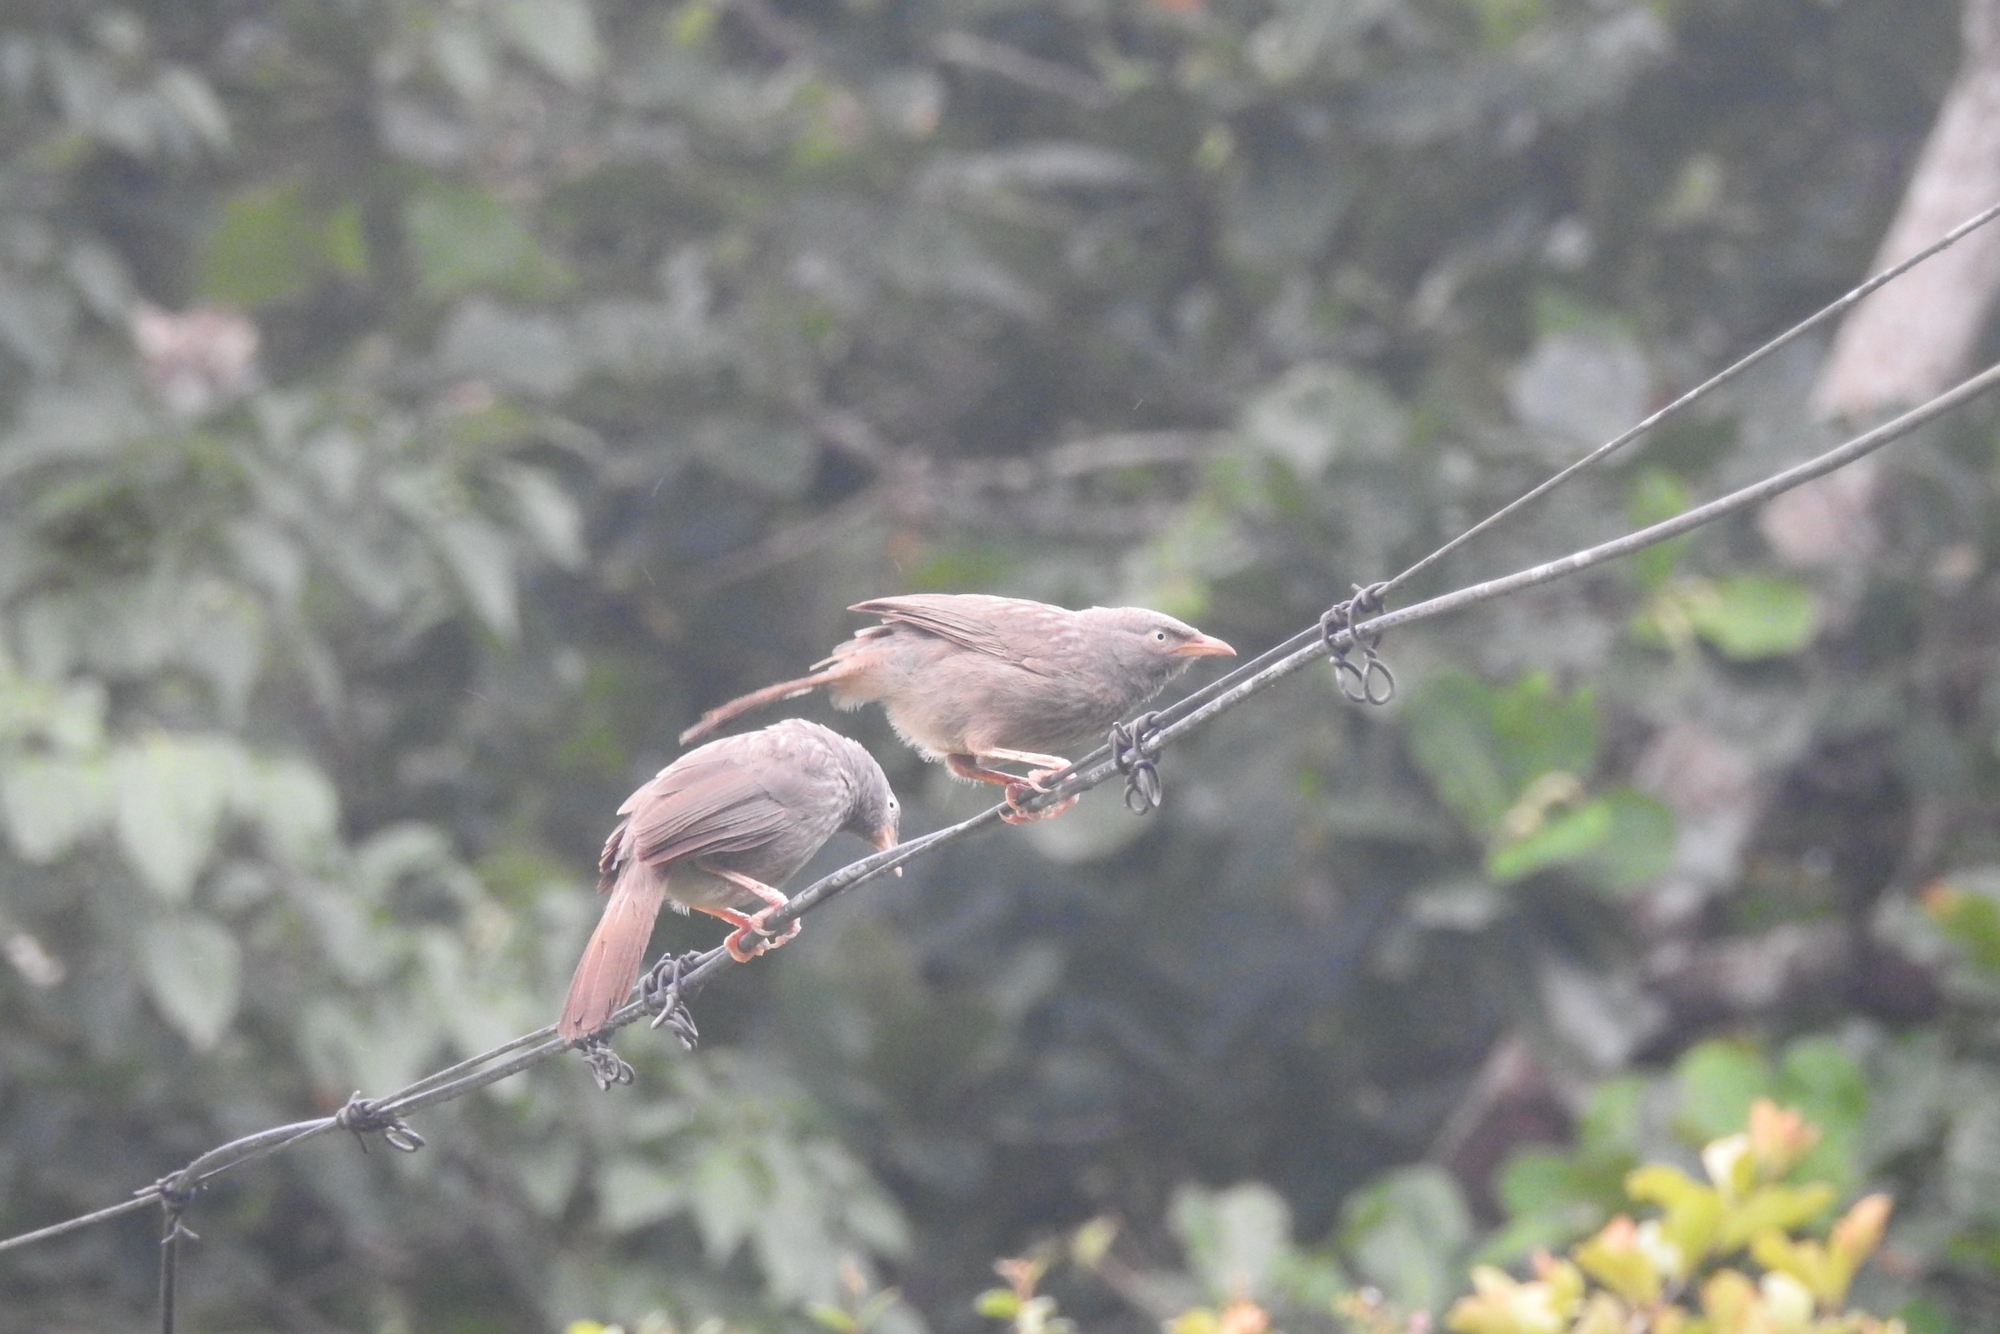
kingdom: Animalia
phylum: Chordata
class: Aves
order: Passeriformes
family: Leiothrichidae
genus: Turdoides
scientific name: Turdoides striata
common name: Jungle babbler
